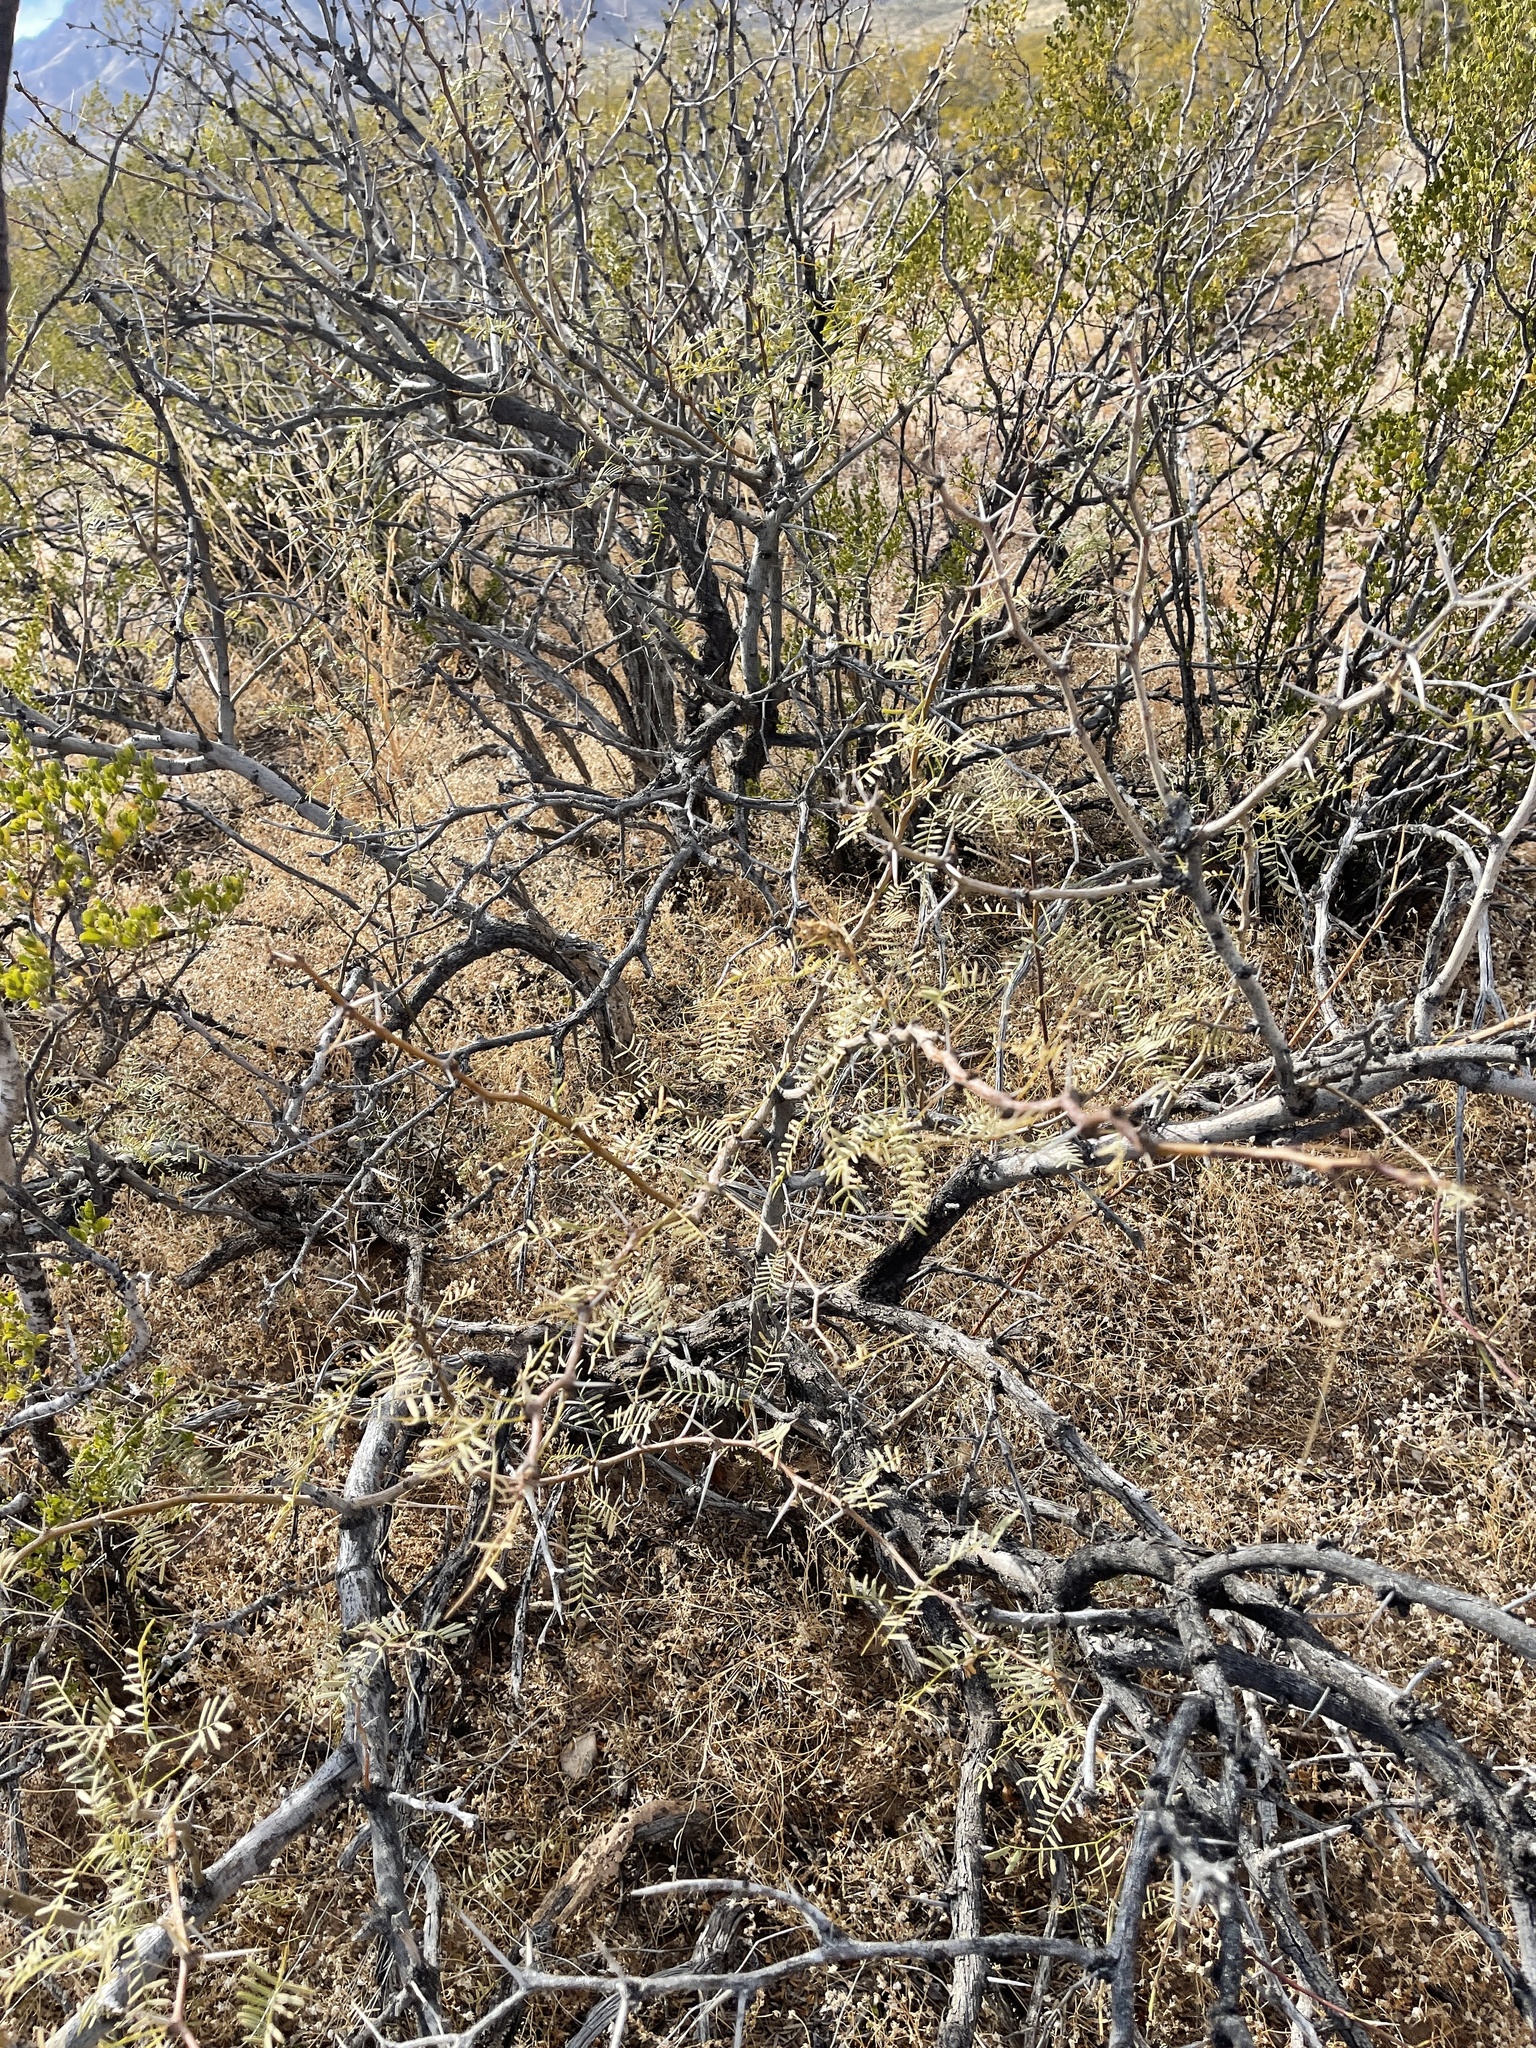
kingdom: Plantae
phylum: Tracheophyta
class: Magnoliopsida
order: Fabales
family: Fabaceae
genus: Prosopis
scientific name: Prosopis glandulosa
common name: Honey mesquite
